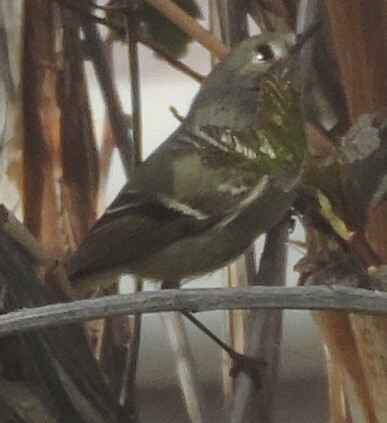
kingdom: Animalia
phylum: Chordata
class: Aves
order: Passeriformes
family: Regulidae
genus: Regulus
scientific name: Regulus calendula
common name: Ruby-crowned kinglet
